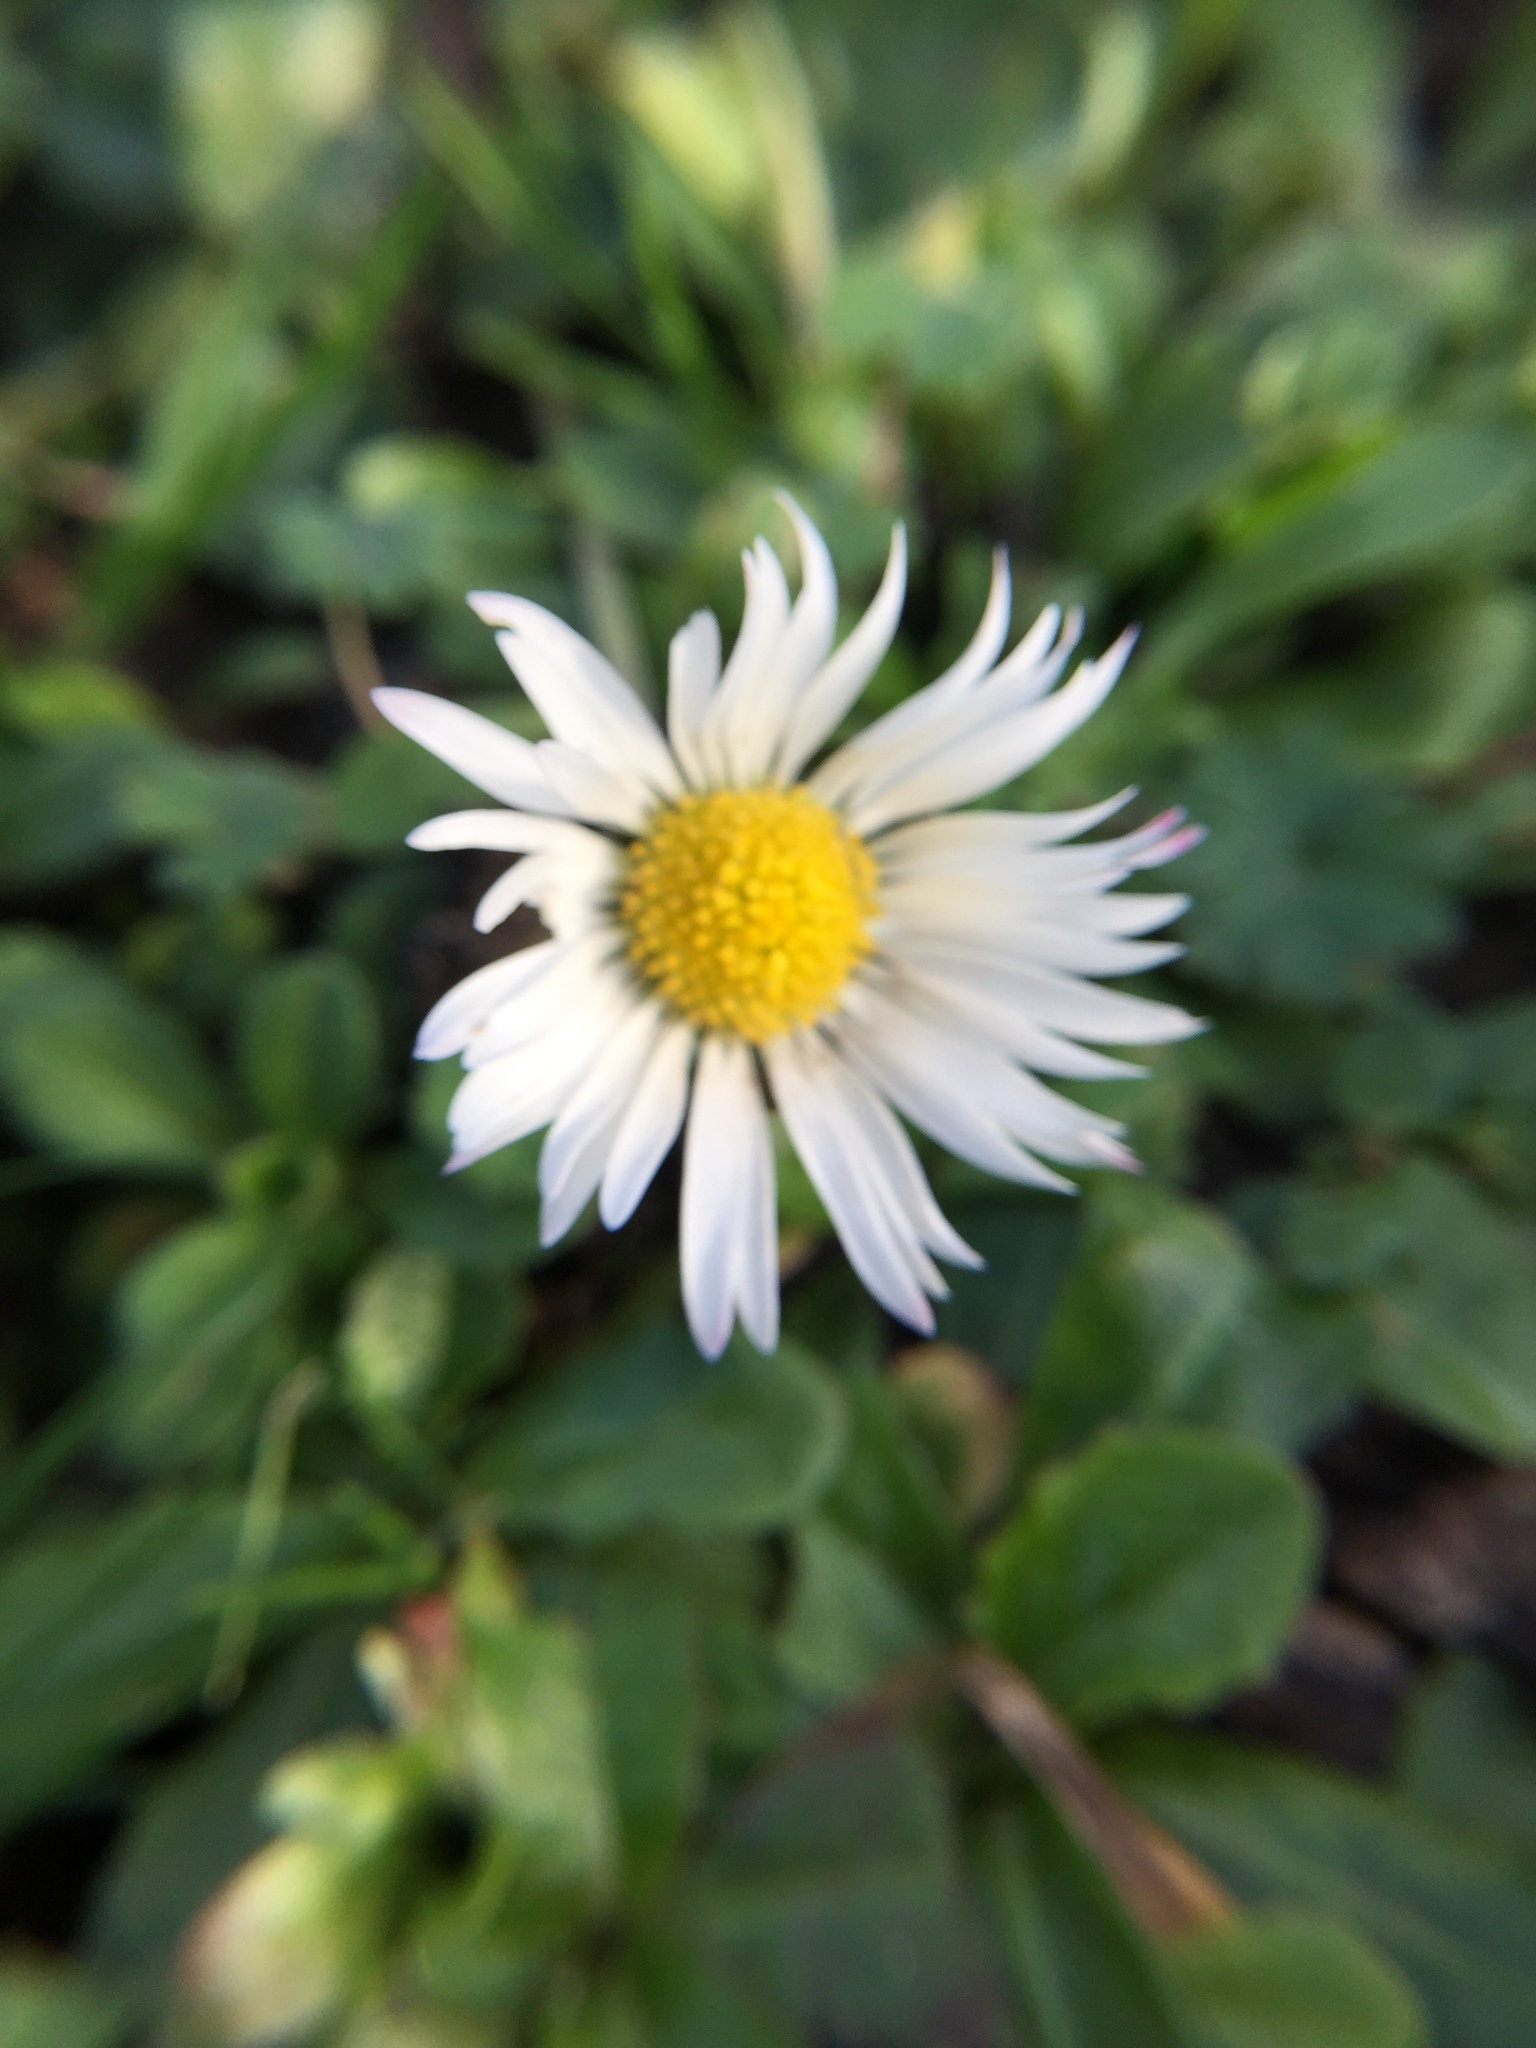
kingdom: Plantae
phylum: Tracheophyta
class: Magnoliopsida
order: Asterales
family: Asteraceae
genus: Bellis
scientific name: Bellis perennis
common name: Lawndaisy
